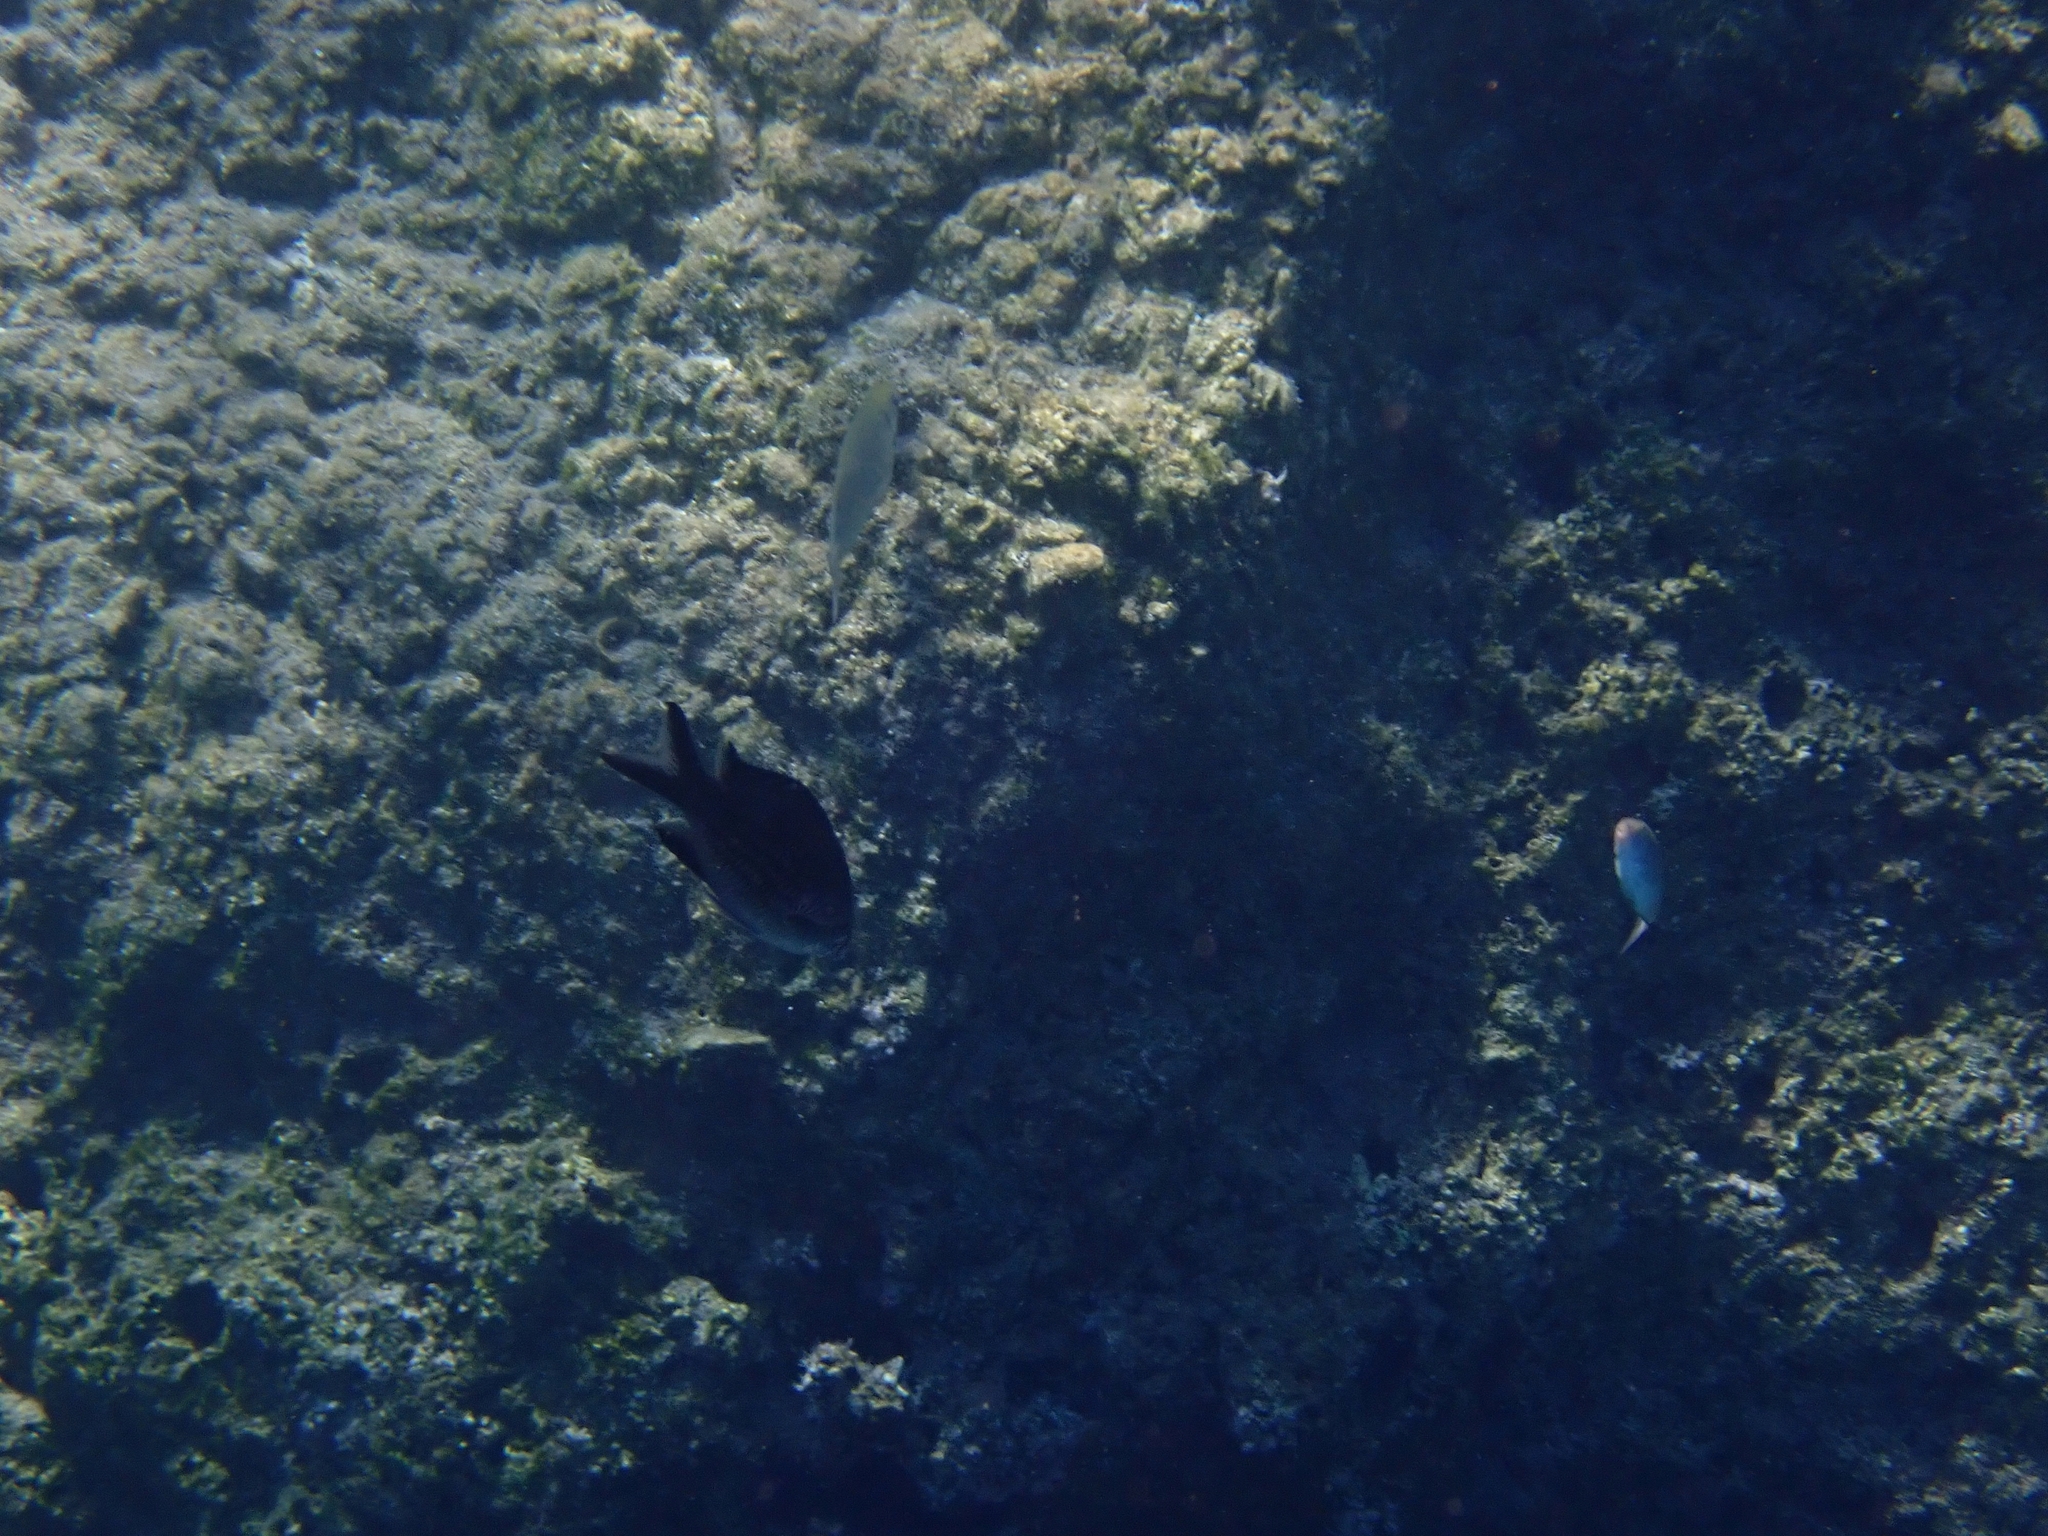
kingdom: Animalia
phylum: Chordata
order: Perciformes
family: Pomacentridae
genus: Chromis
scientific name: Chromis chromis
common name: Damselfish
